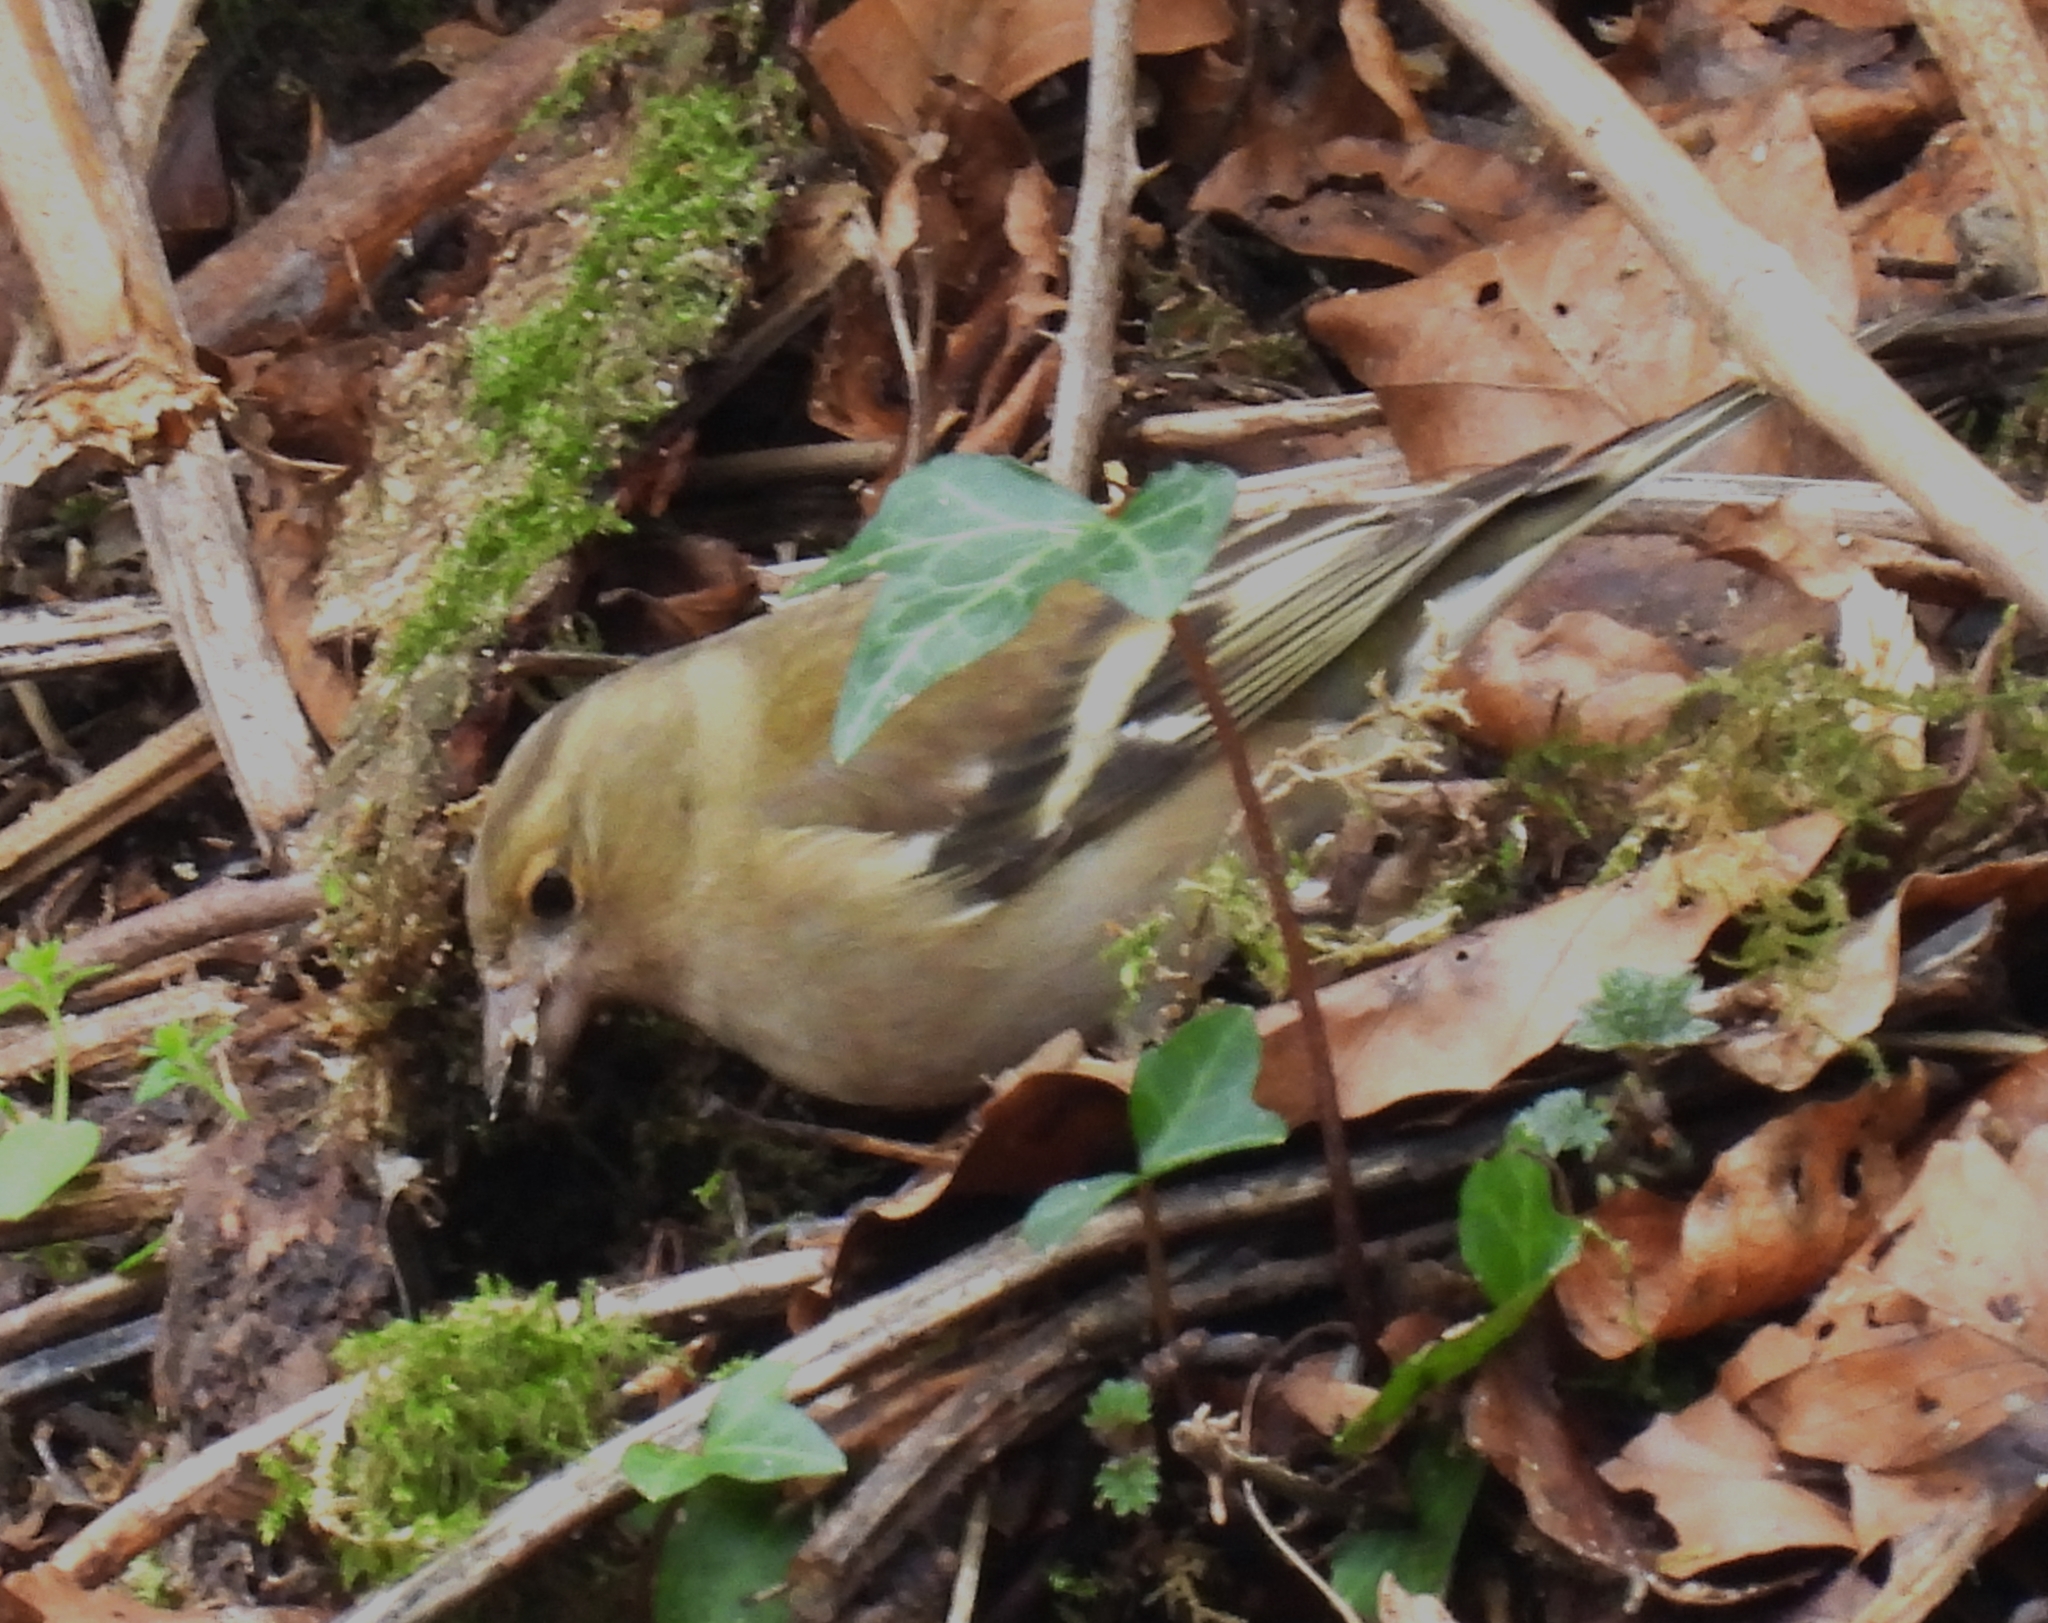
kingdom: Animalia
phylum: Chordata
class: Aves
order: Passeriformes
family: Fringillidae
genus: Fringilla
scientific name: Fringilla coelebs
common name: Common chaffinch
